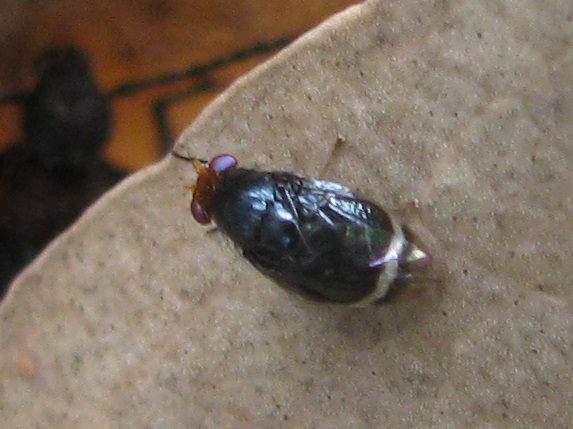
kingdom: Animalia
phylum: Arthropoda
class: Insecta
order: Diptera
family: Lauxaniidae
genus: Depressa
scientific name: Depressa atrata
